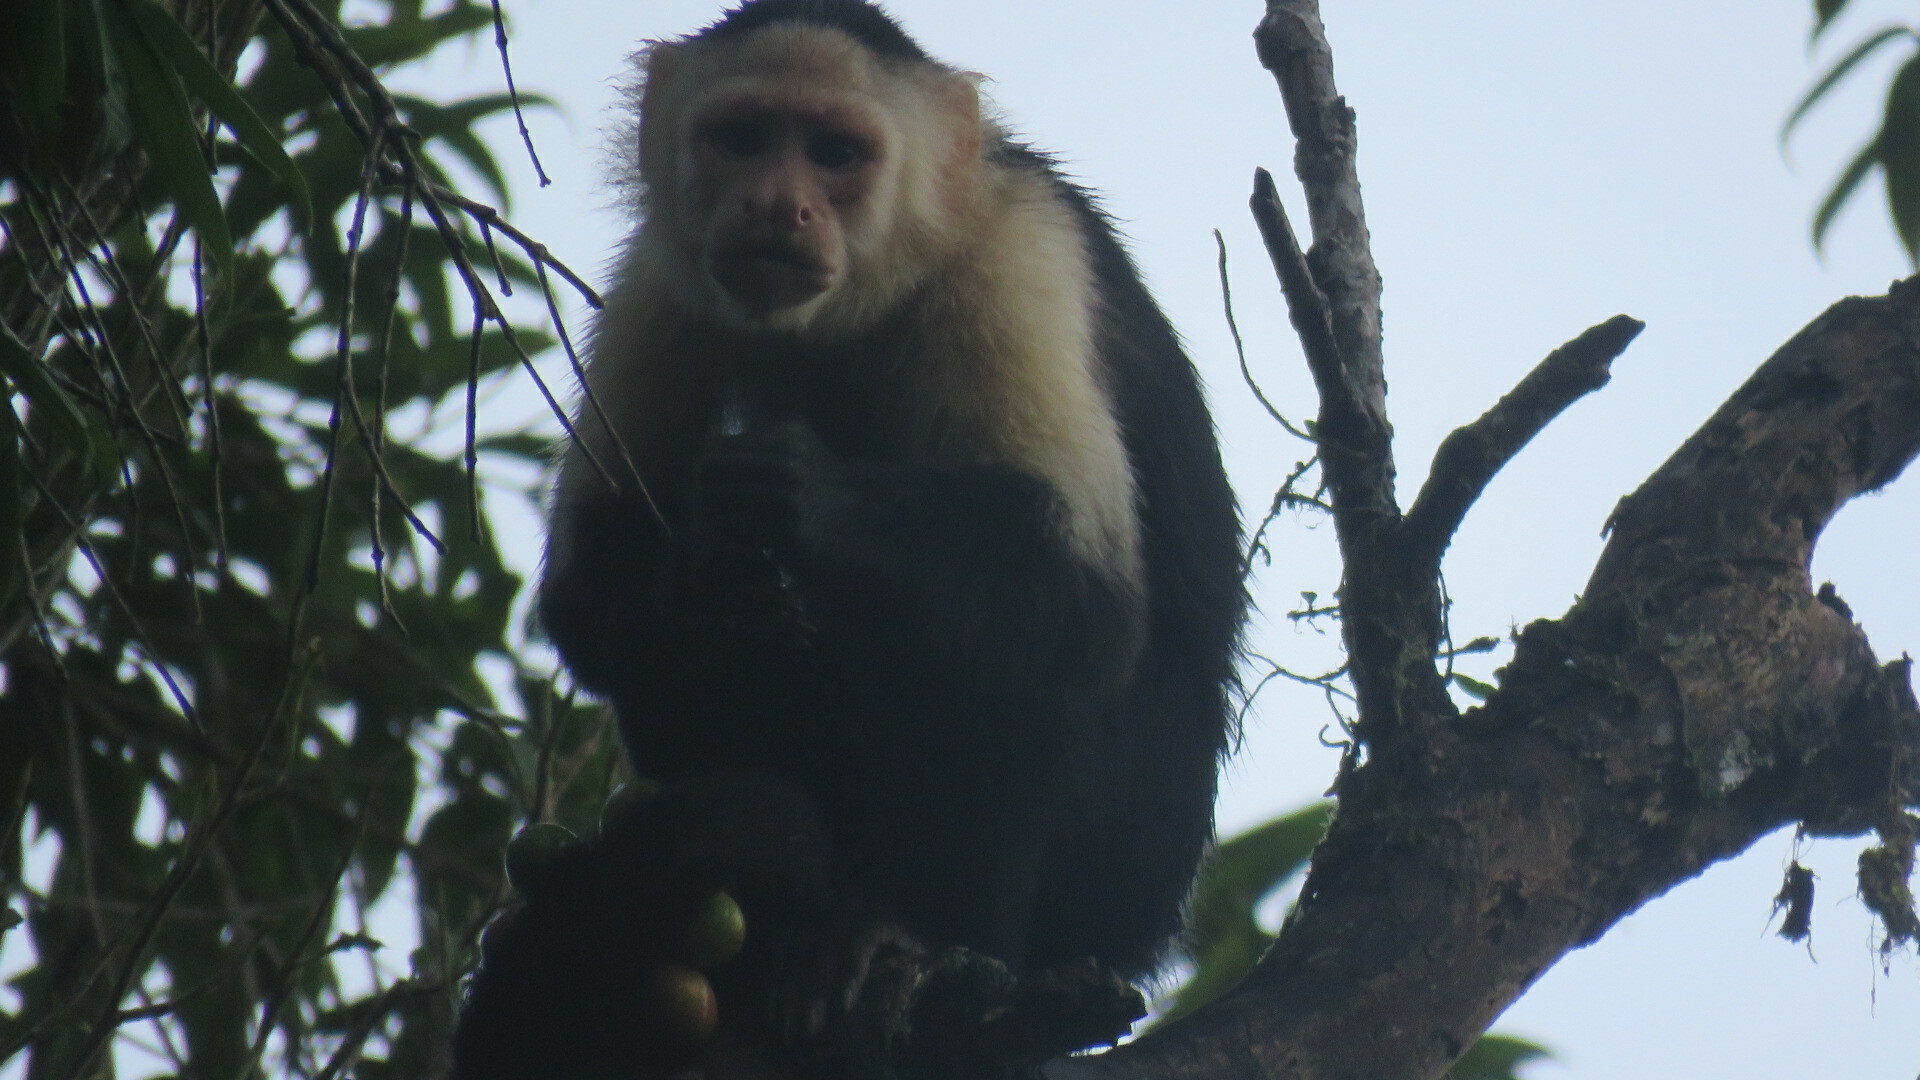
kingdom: Animalia
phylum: Chordata
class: Mammalia
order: Primates
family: Cebidae
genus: Cebus
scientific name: Cebus capucinus
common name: White-headed capuchin
